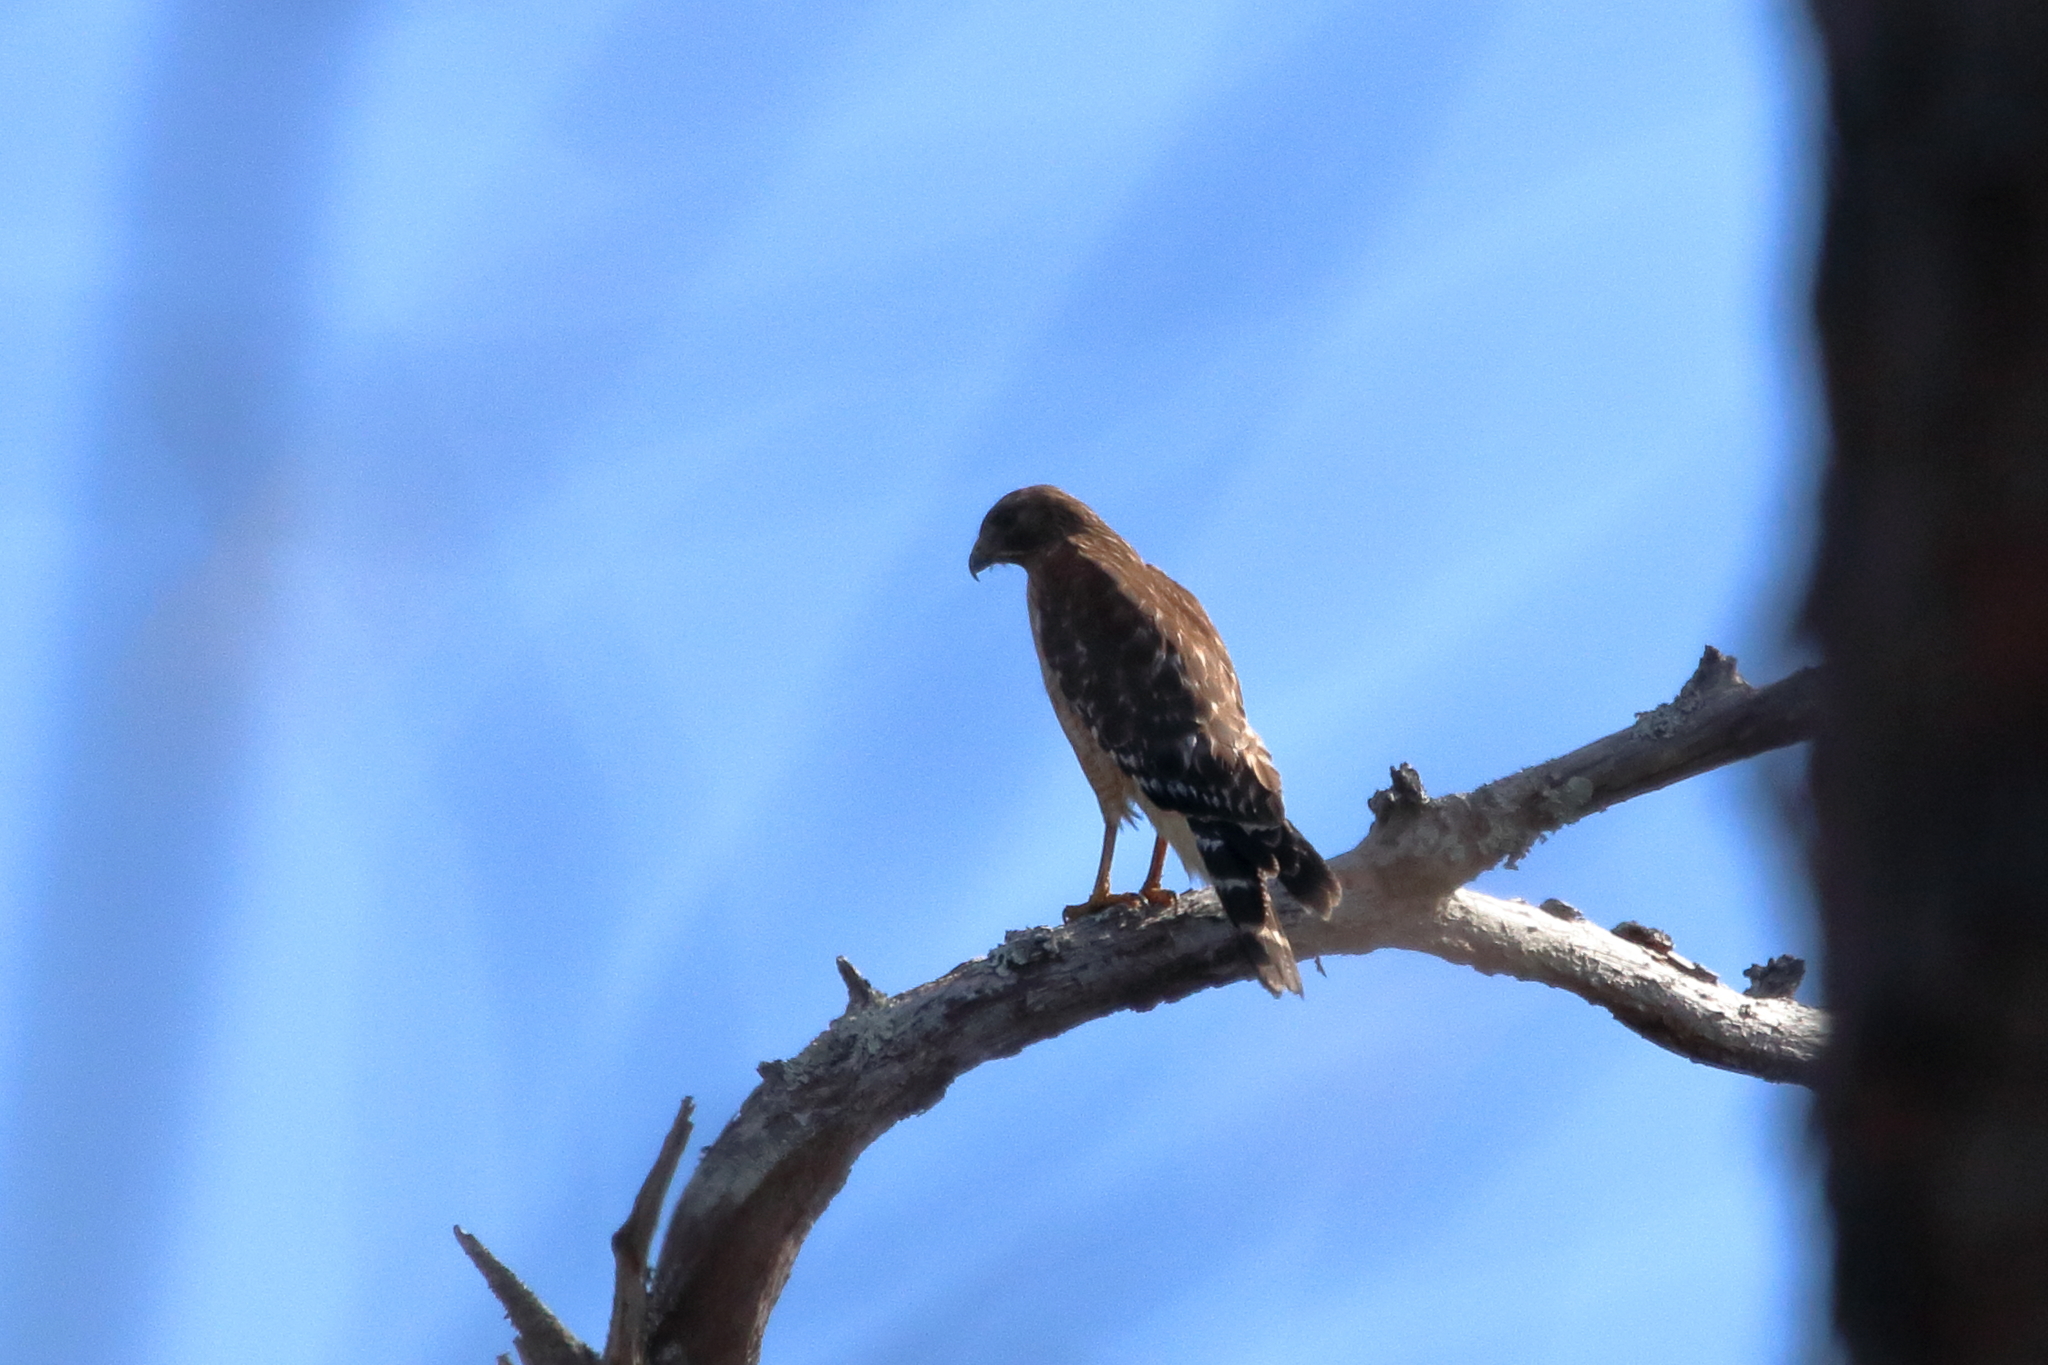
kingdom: Animalia
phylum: Chordata
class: Aves
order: Accipitriformes
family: Accipitridae
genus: Buteo
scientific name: Buteo lineatus
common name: Red-shouldered hawk
